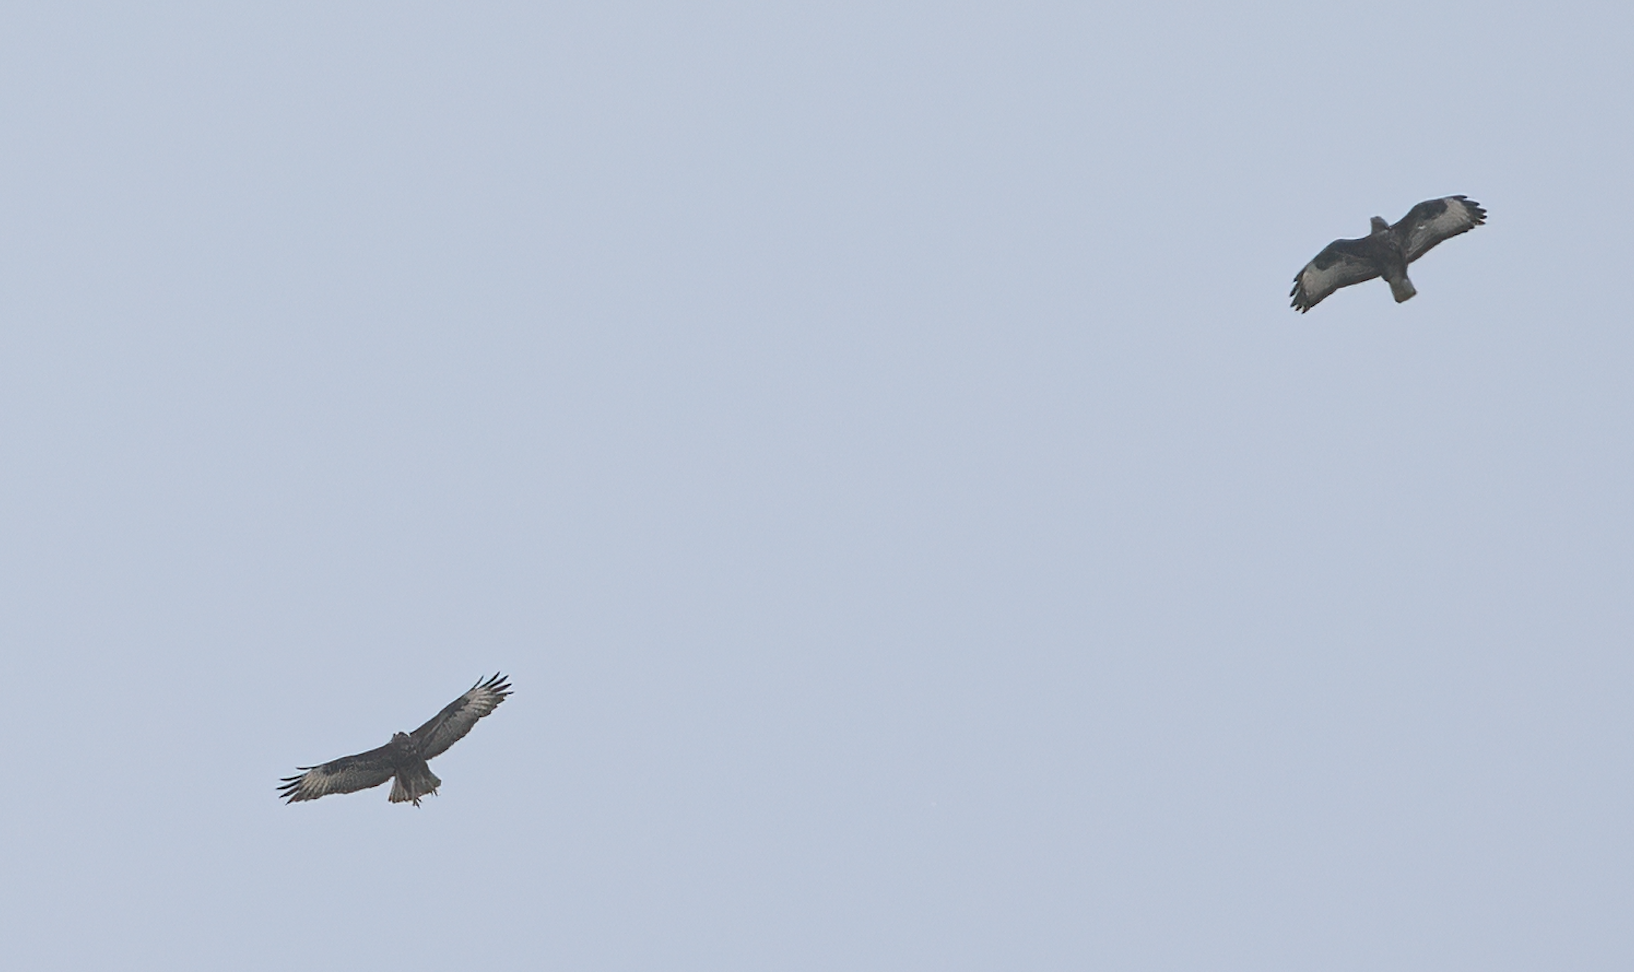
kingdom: Animalia
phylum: Chordata
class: Aves
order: Accipitriformes
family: Accipitridae
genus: Buteo
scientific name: Buteo buteo
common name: Common buzzard
